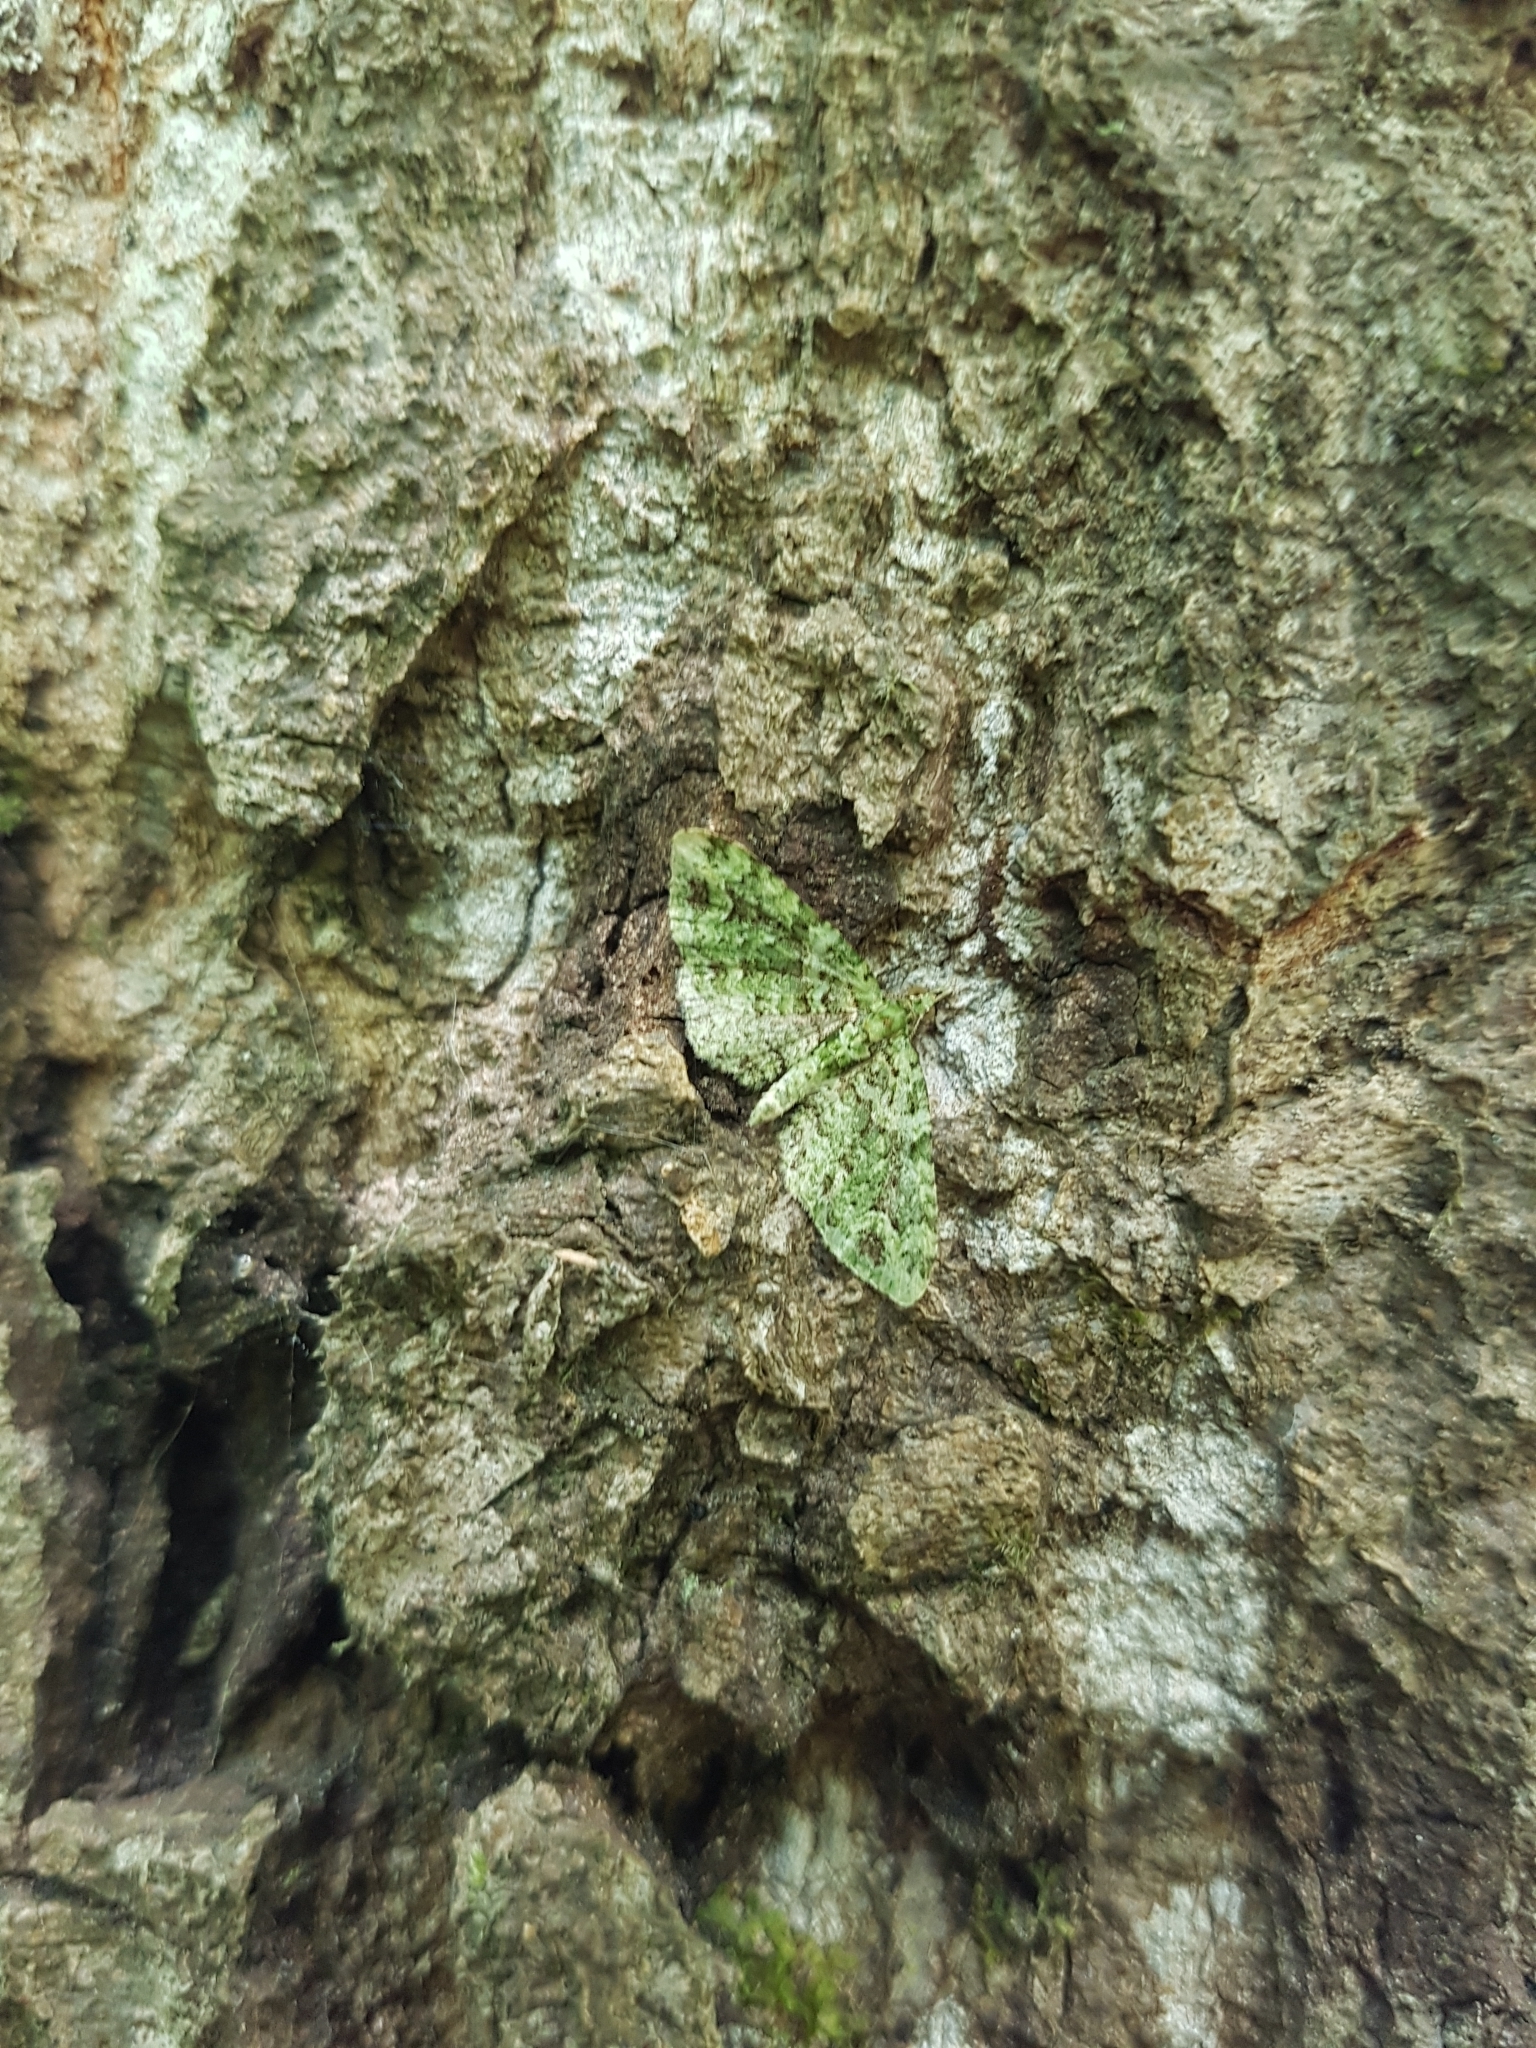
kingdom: Animalia
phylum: Arthropoda
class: Insecta
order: Lepidoptera
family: Geometridae
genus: Pasiphila
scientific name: Pasiphila muscosata
